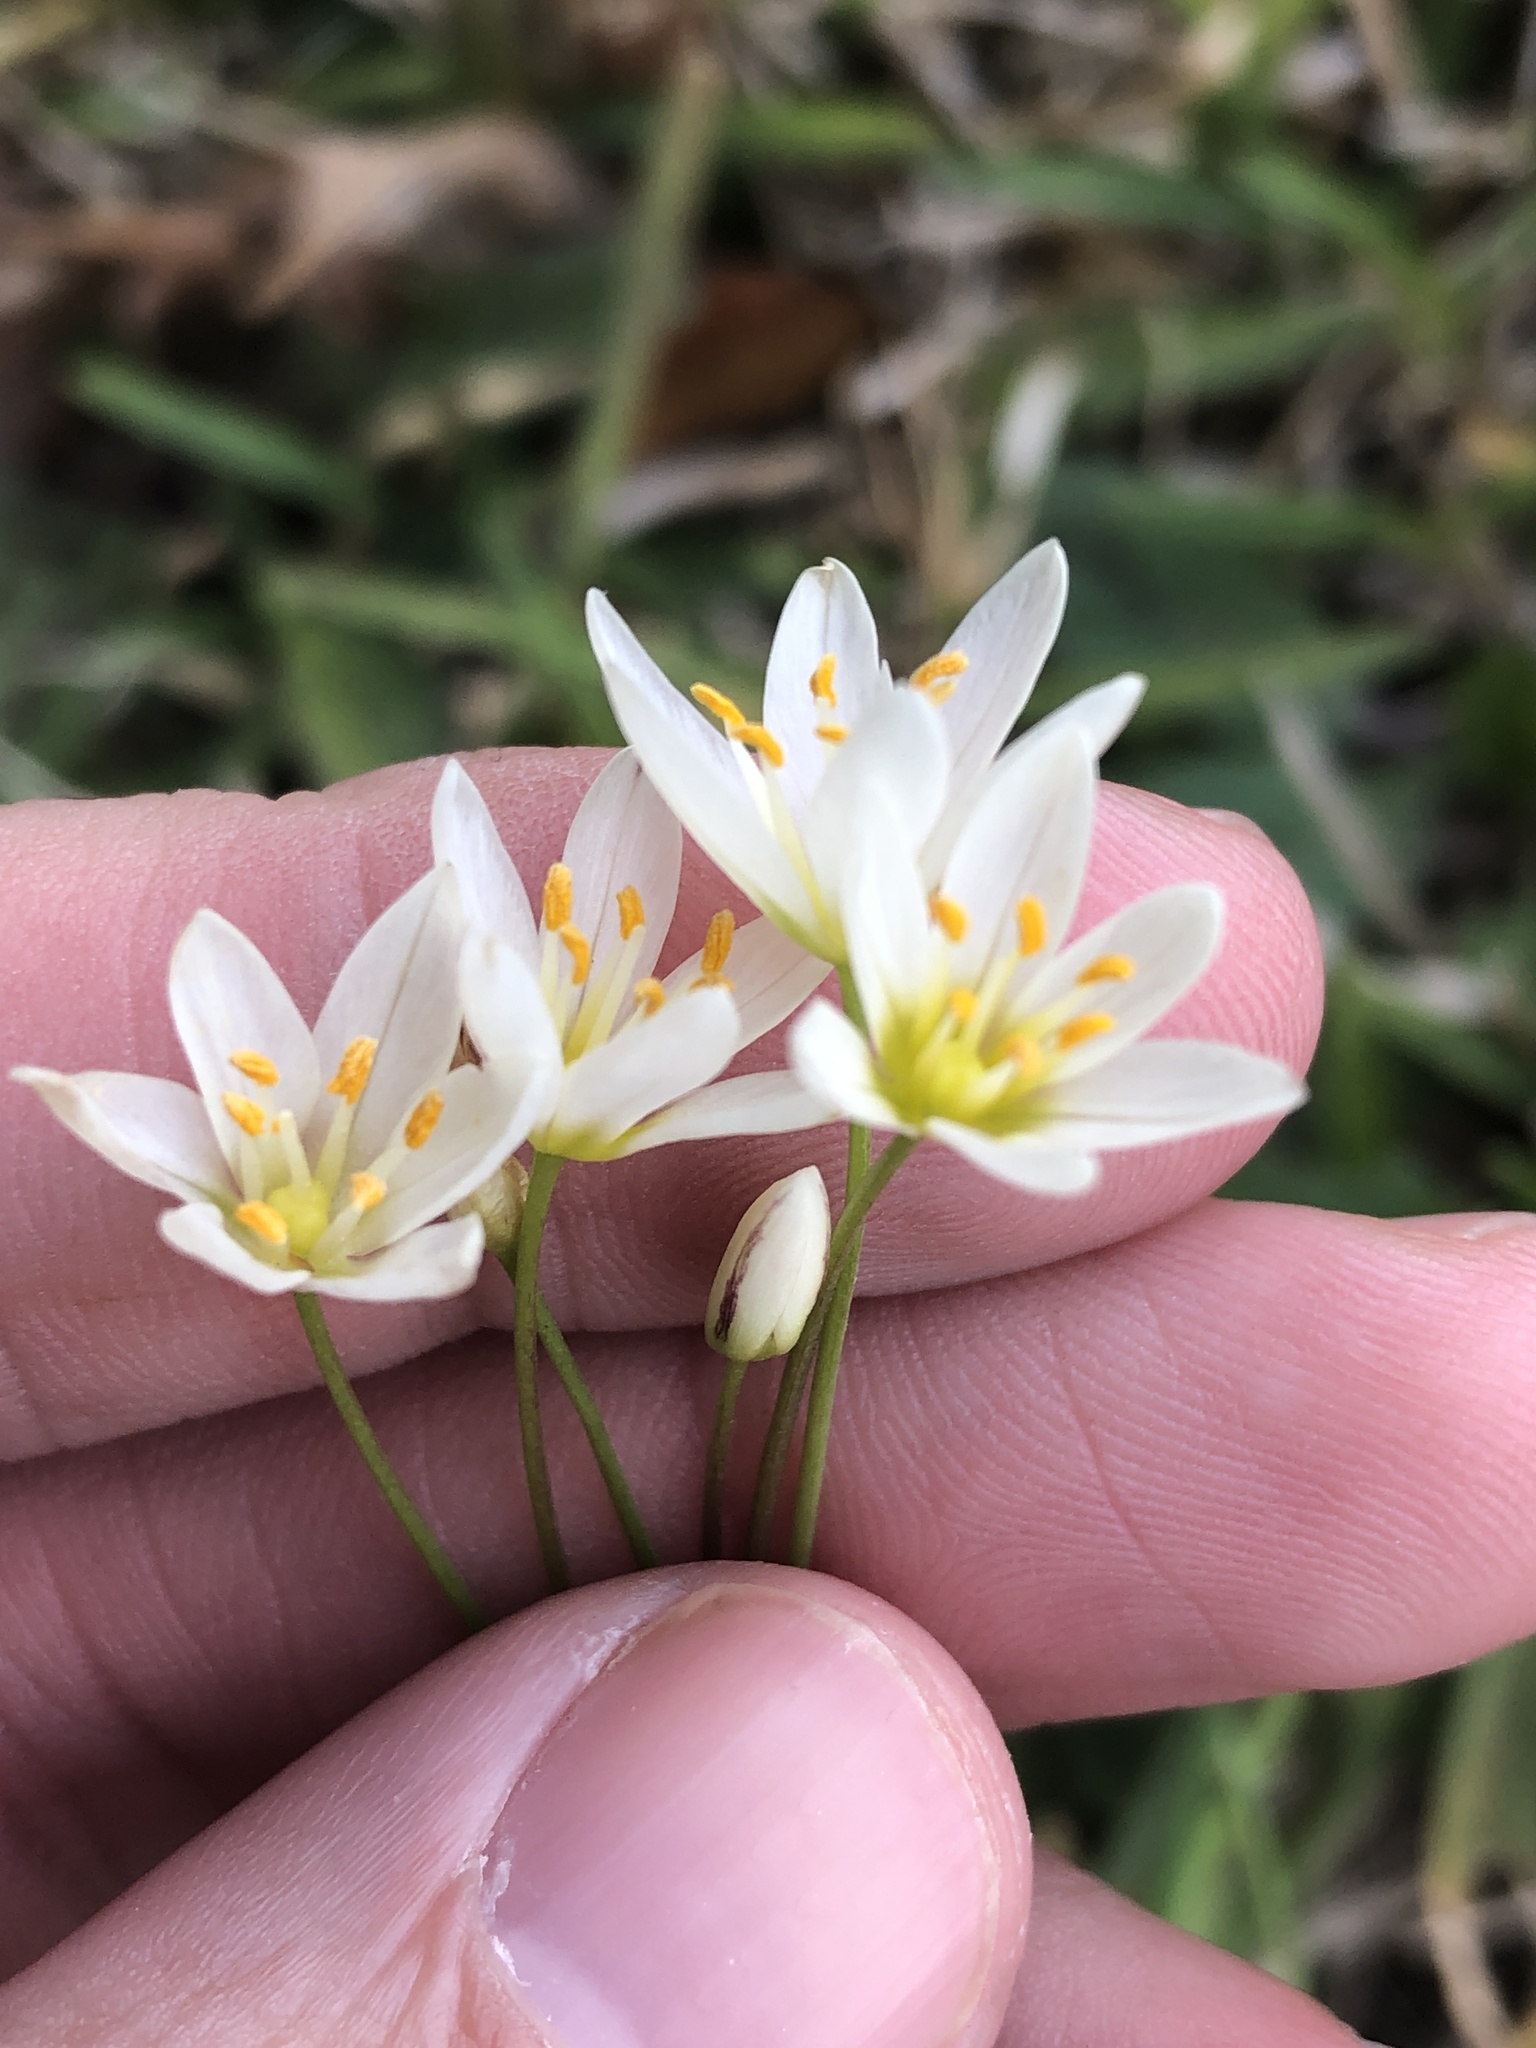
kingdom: Plantae
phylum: Tracheophyta
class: Liliopsida
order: Asparagales
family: Amaryllidaceae
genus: Nothoscordum
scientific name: Nothoscordum bivalve
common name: Crow-poison
